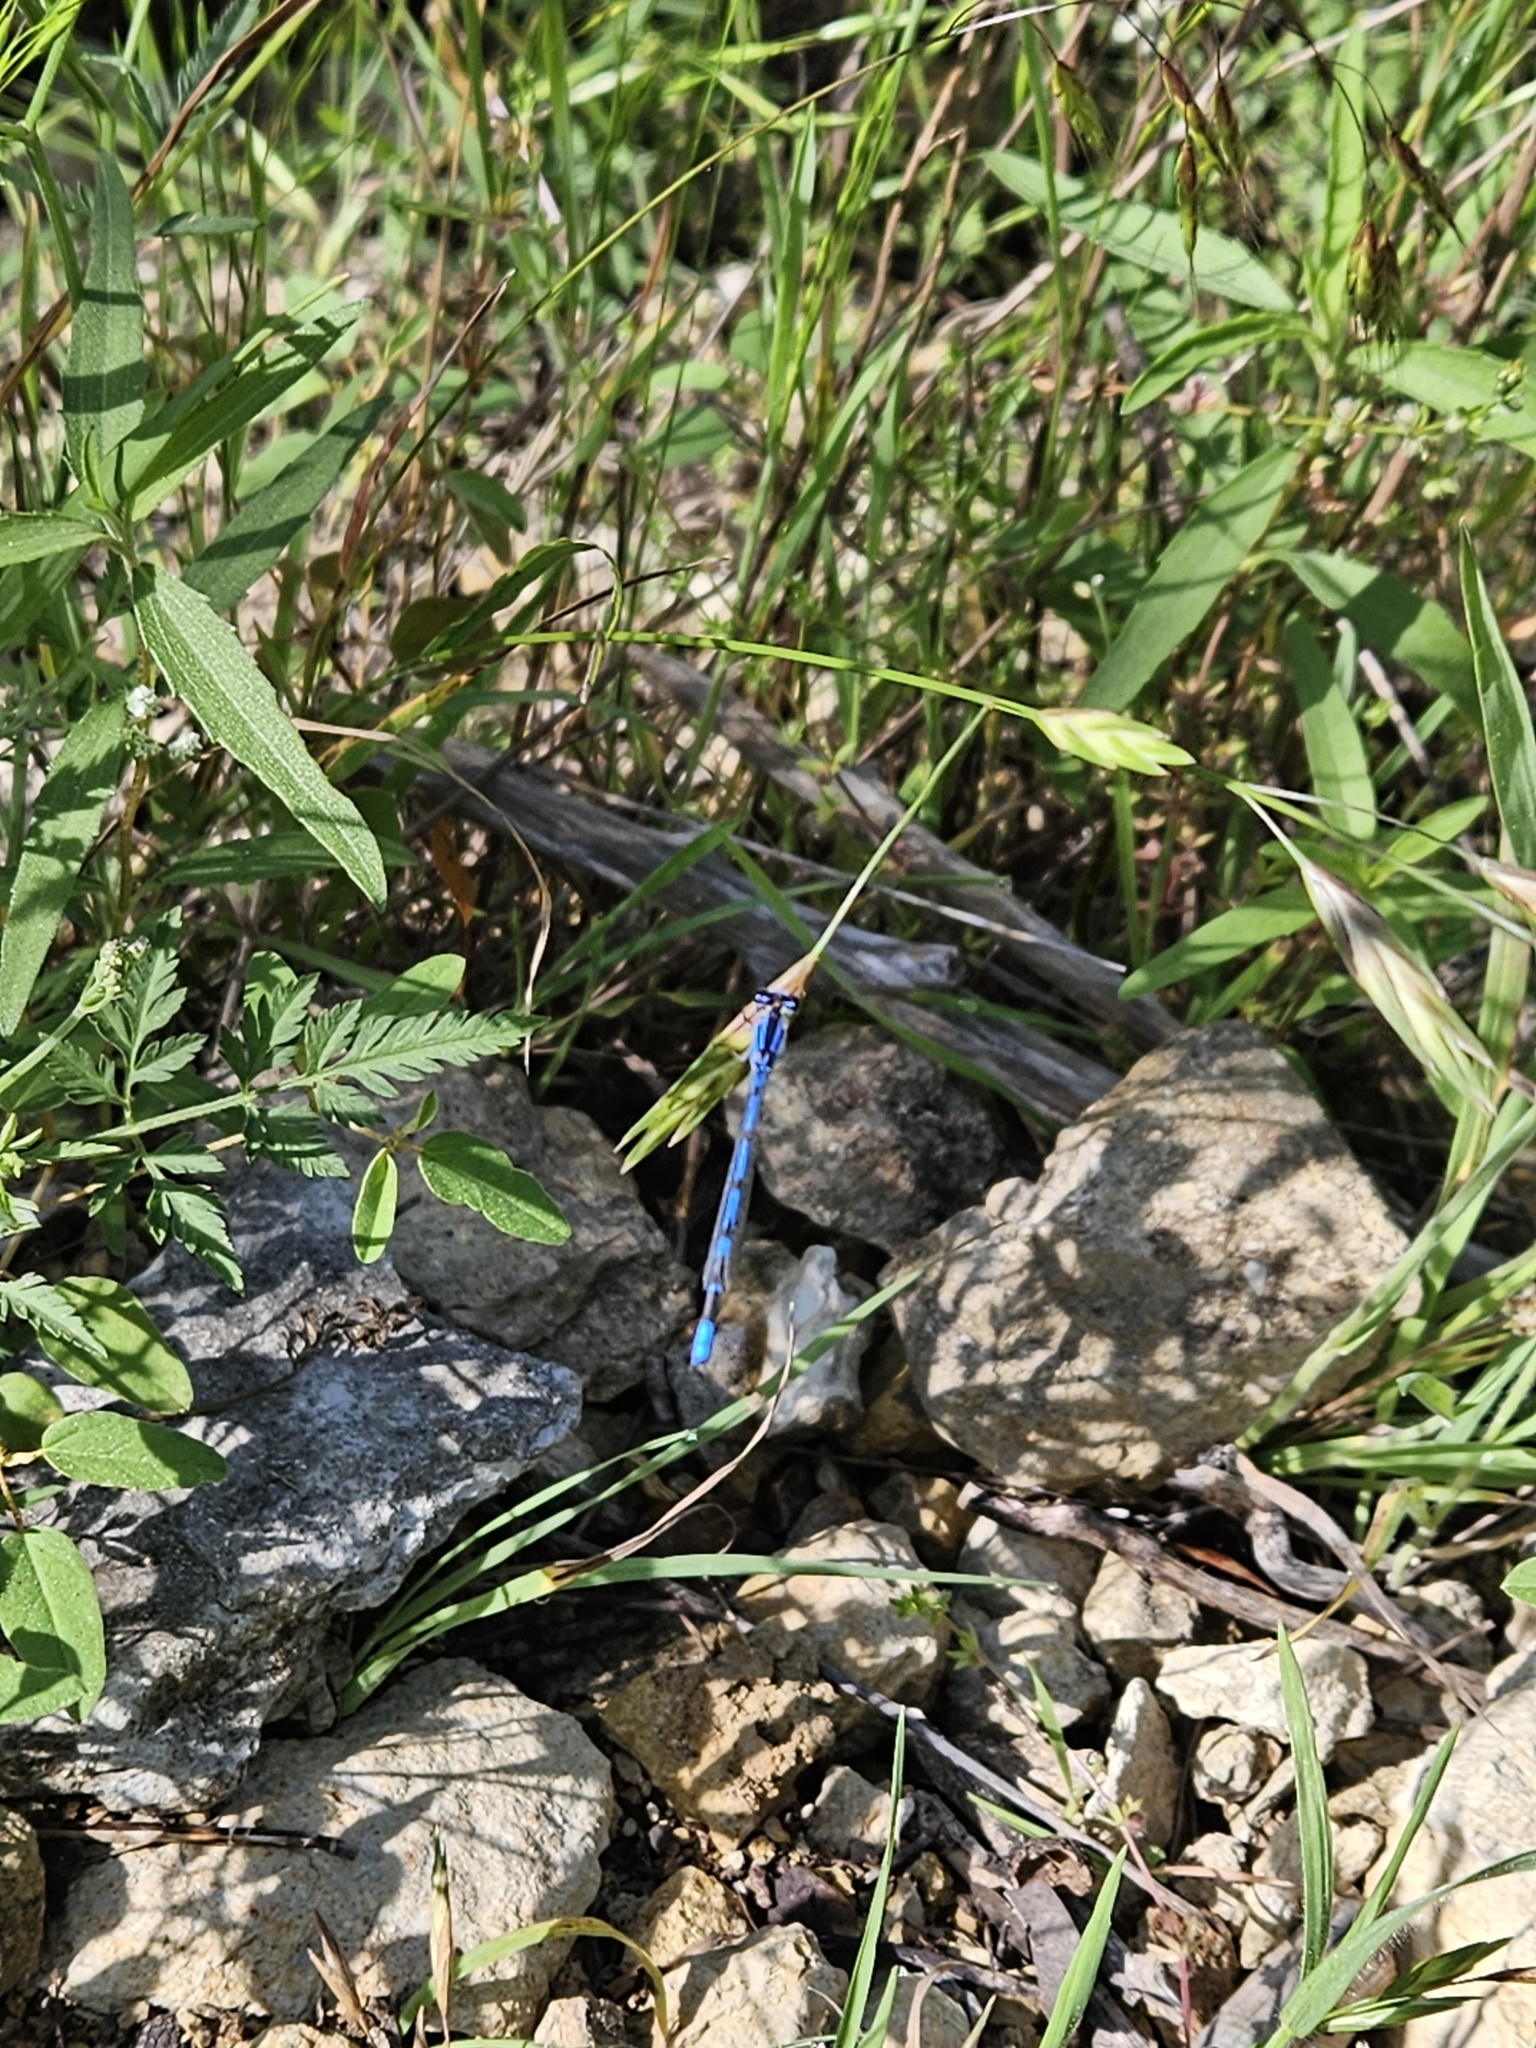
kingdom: Animalia
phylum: Arthropoda
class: Insecta
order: Odonata
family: Coenagrionidae
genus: Enallagma
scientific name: Enallagma civile
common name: Damselfly
